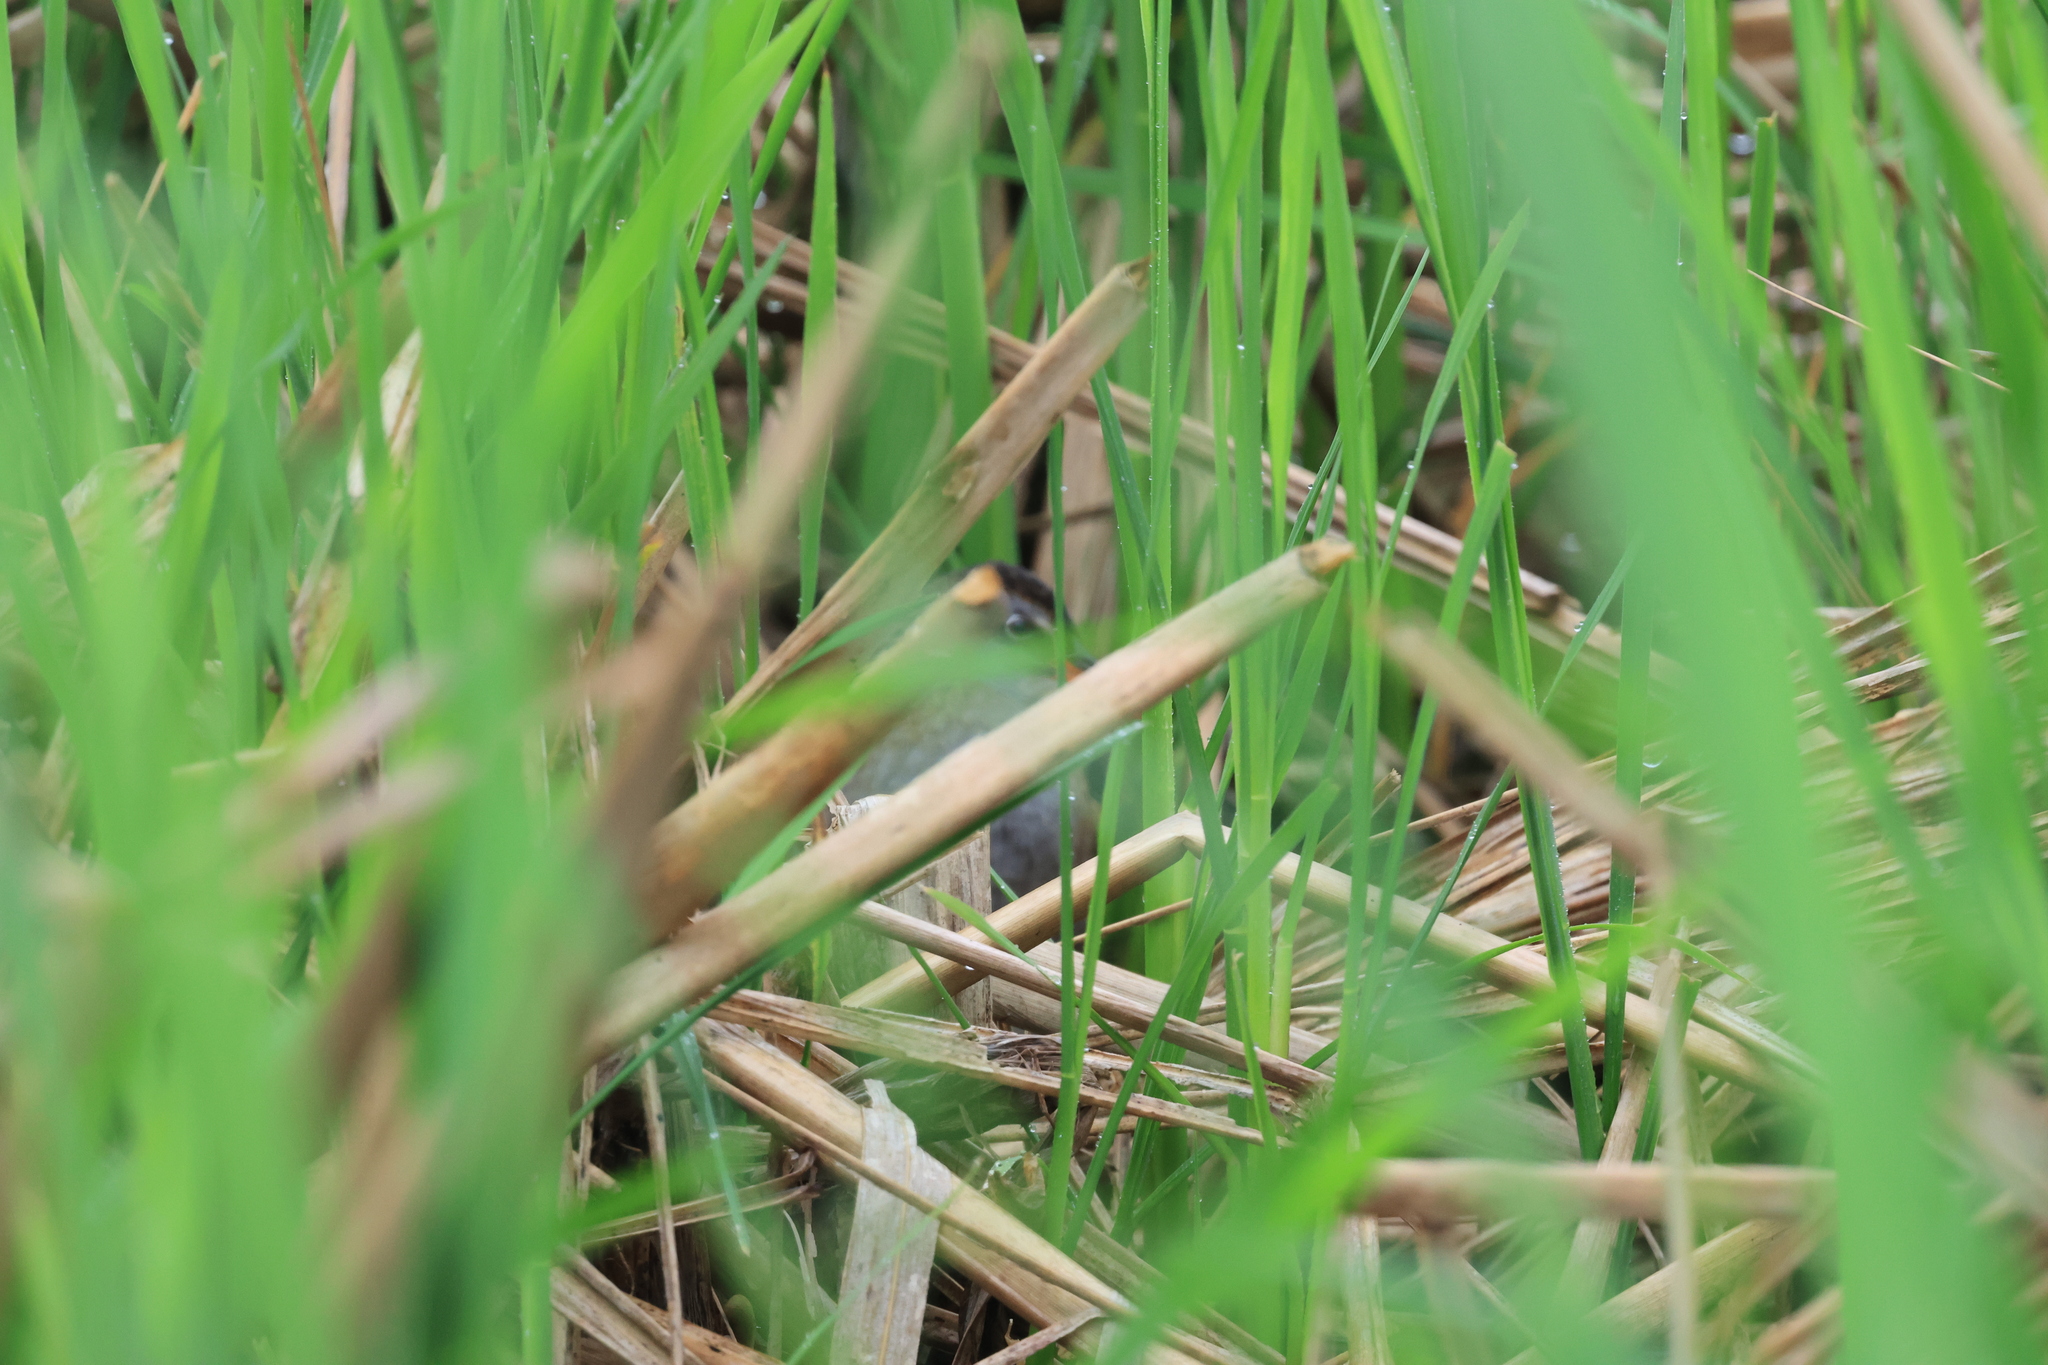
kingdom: Animalia
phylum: Chordata
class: Aves
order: Gruiformes
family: Rallidae
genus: Rallus
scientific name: Rallus indicus
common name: Brown-cheeked rail
